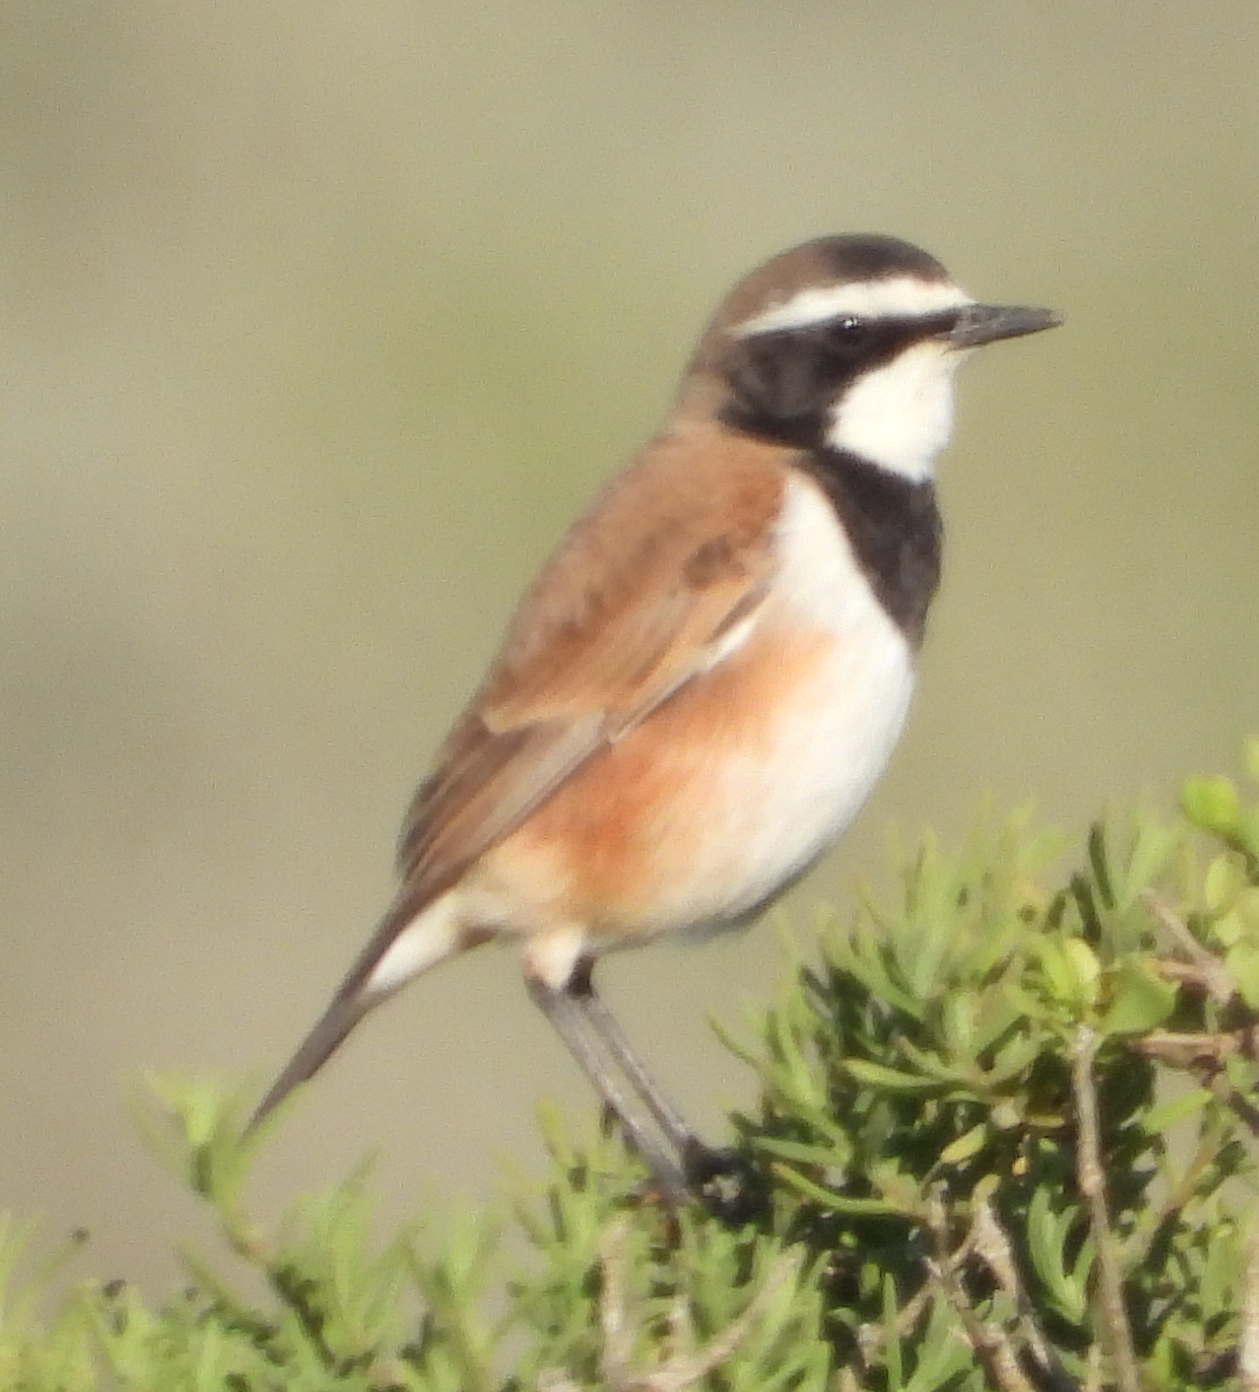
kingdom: Animalia
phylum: Chordata
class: Aves
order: Passeriformes
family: Muscicapidae
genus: Oenanthe
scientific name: Oenanthe pileata
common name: Capped wheatear
